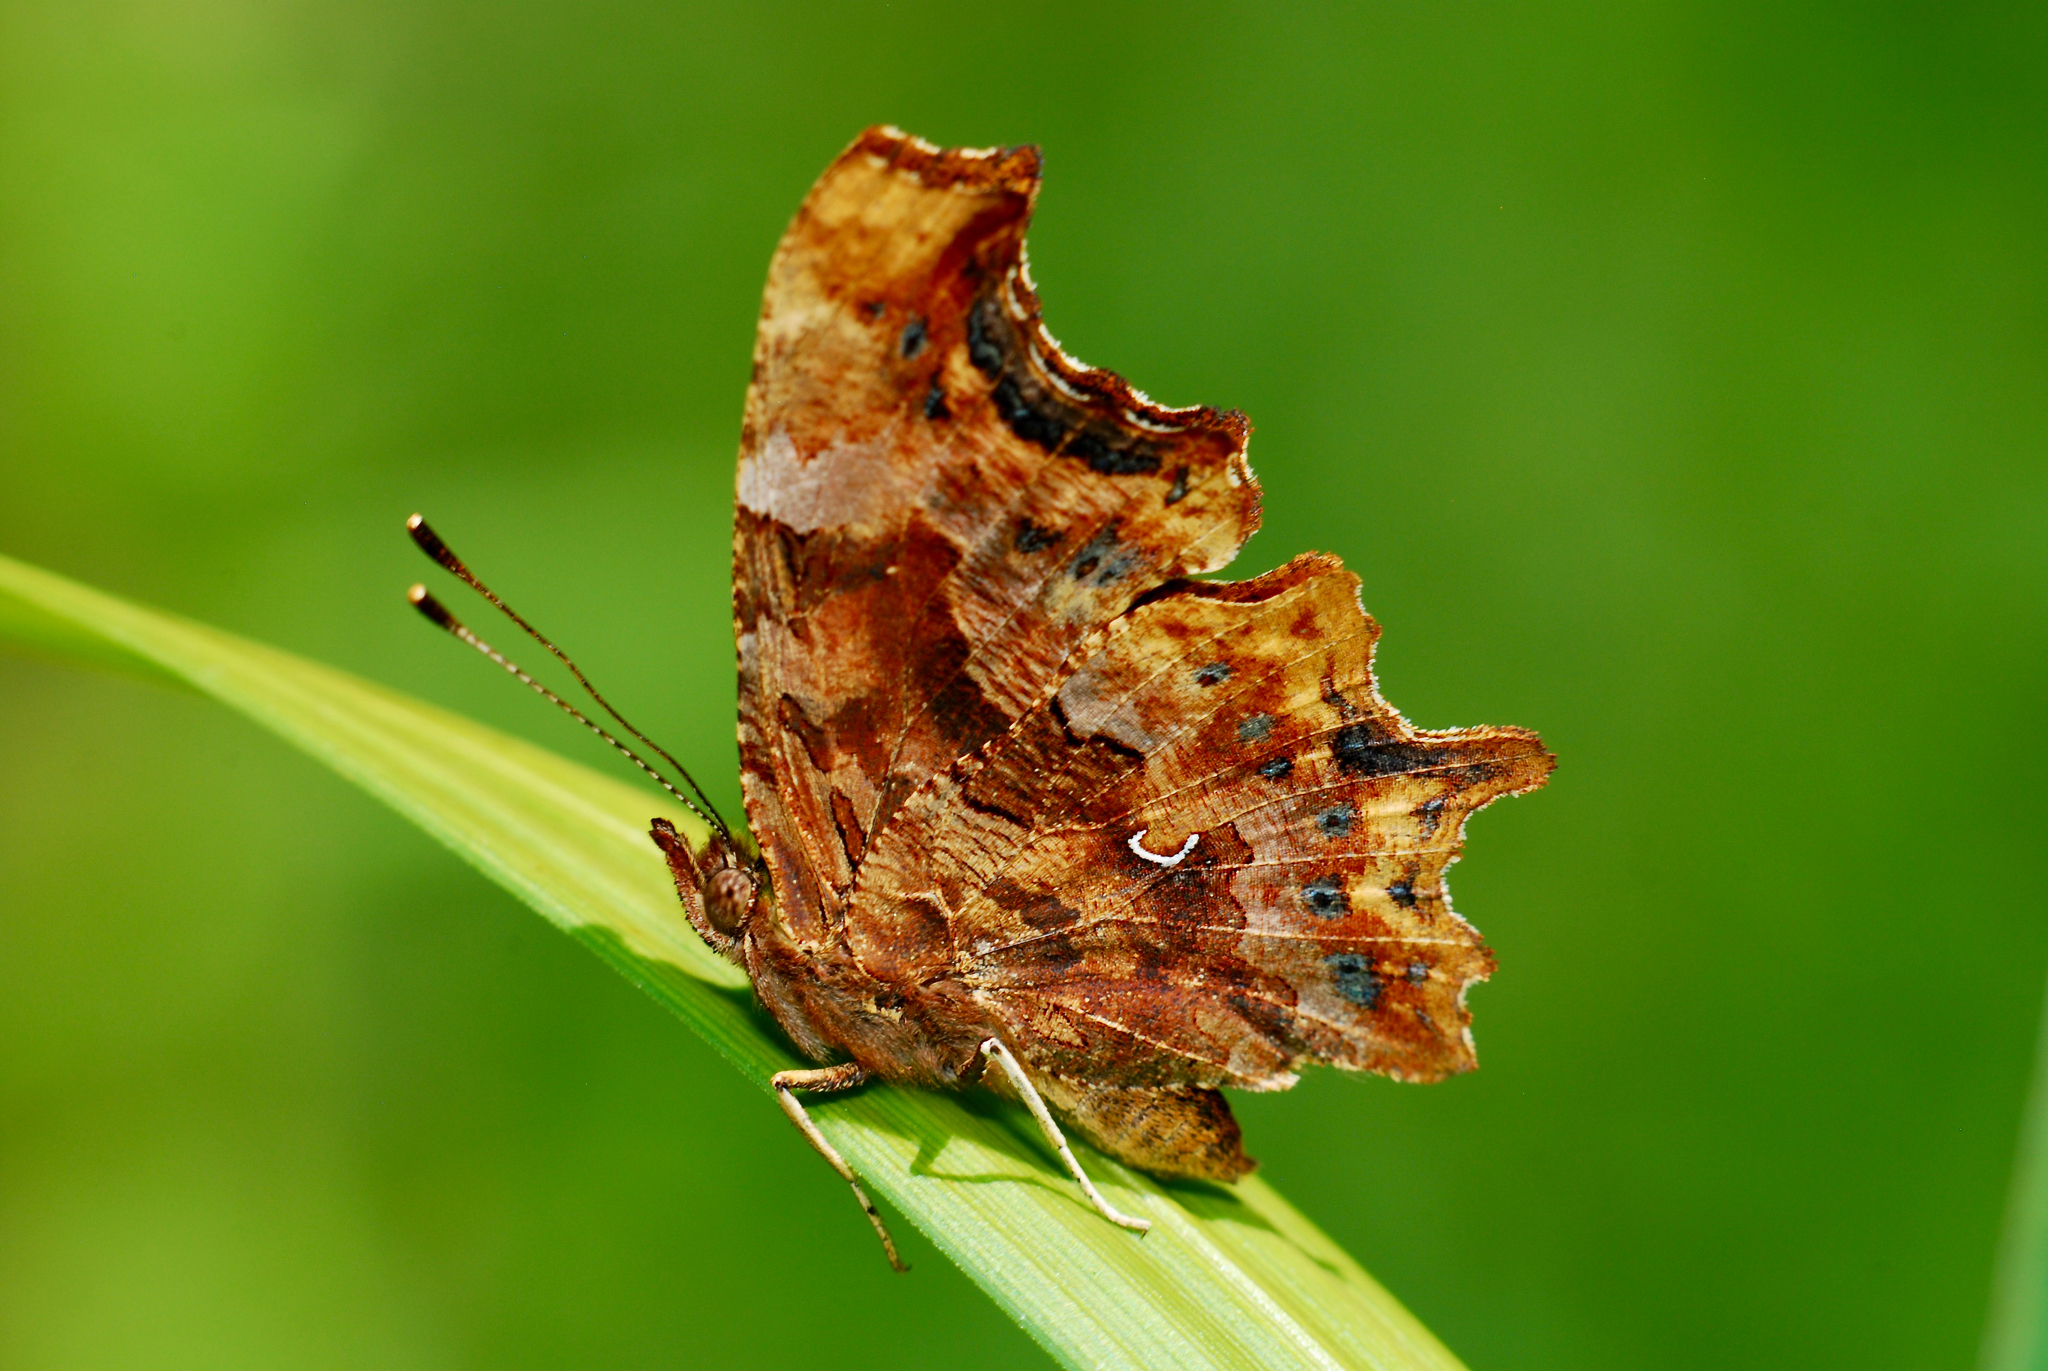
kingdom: Animalia
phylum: Arthropoda
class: Insecta
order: Lepidoptera
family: Nymphalidae
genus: Polygonia
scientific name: Polygonia c-album
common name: Comma
